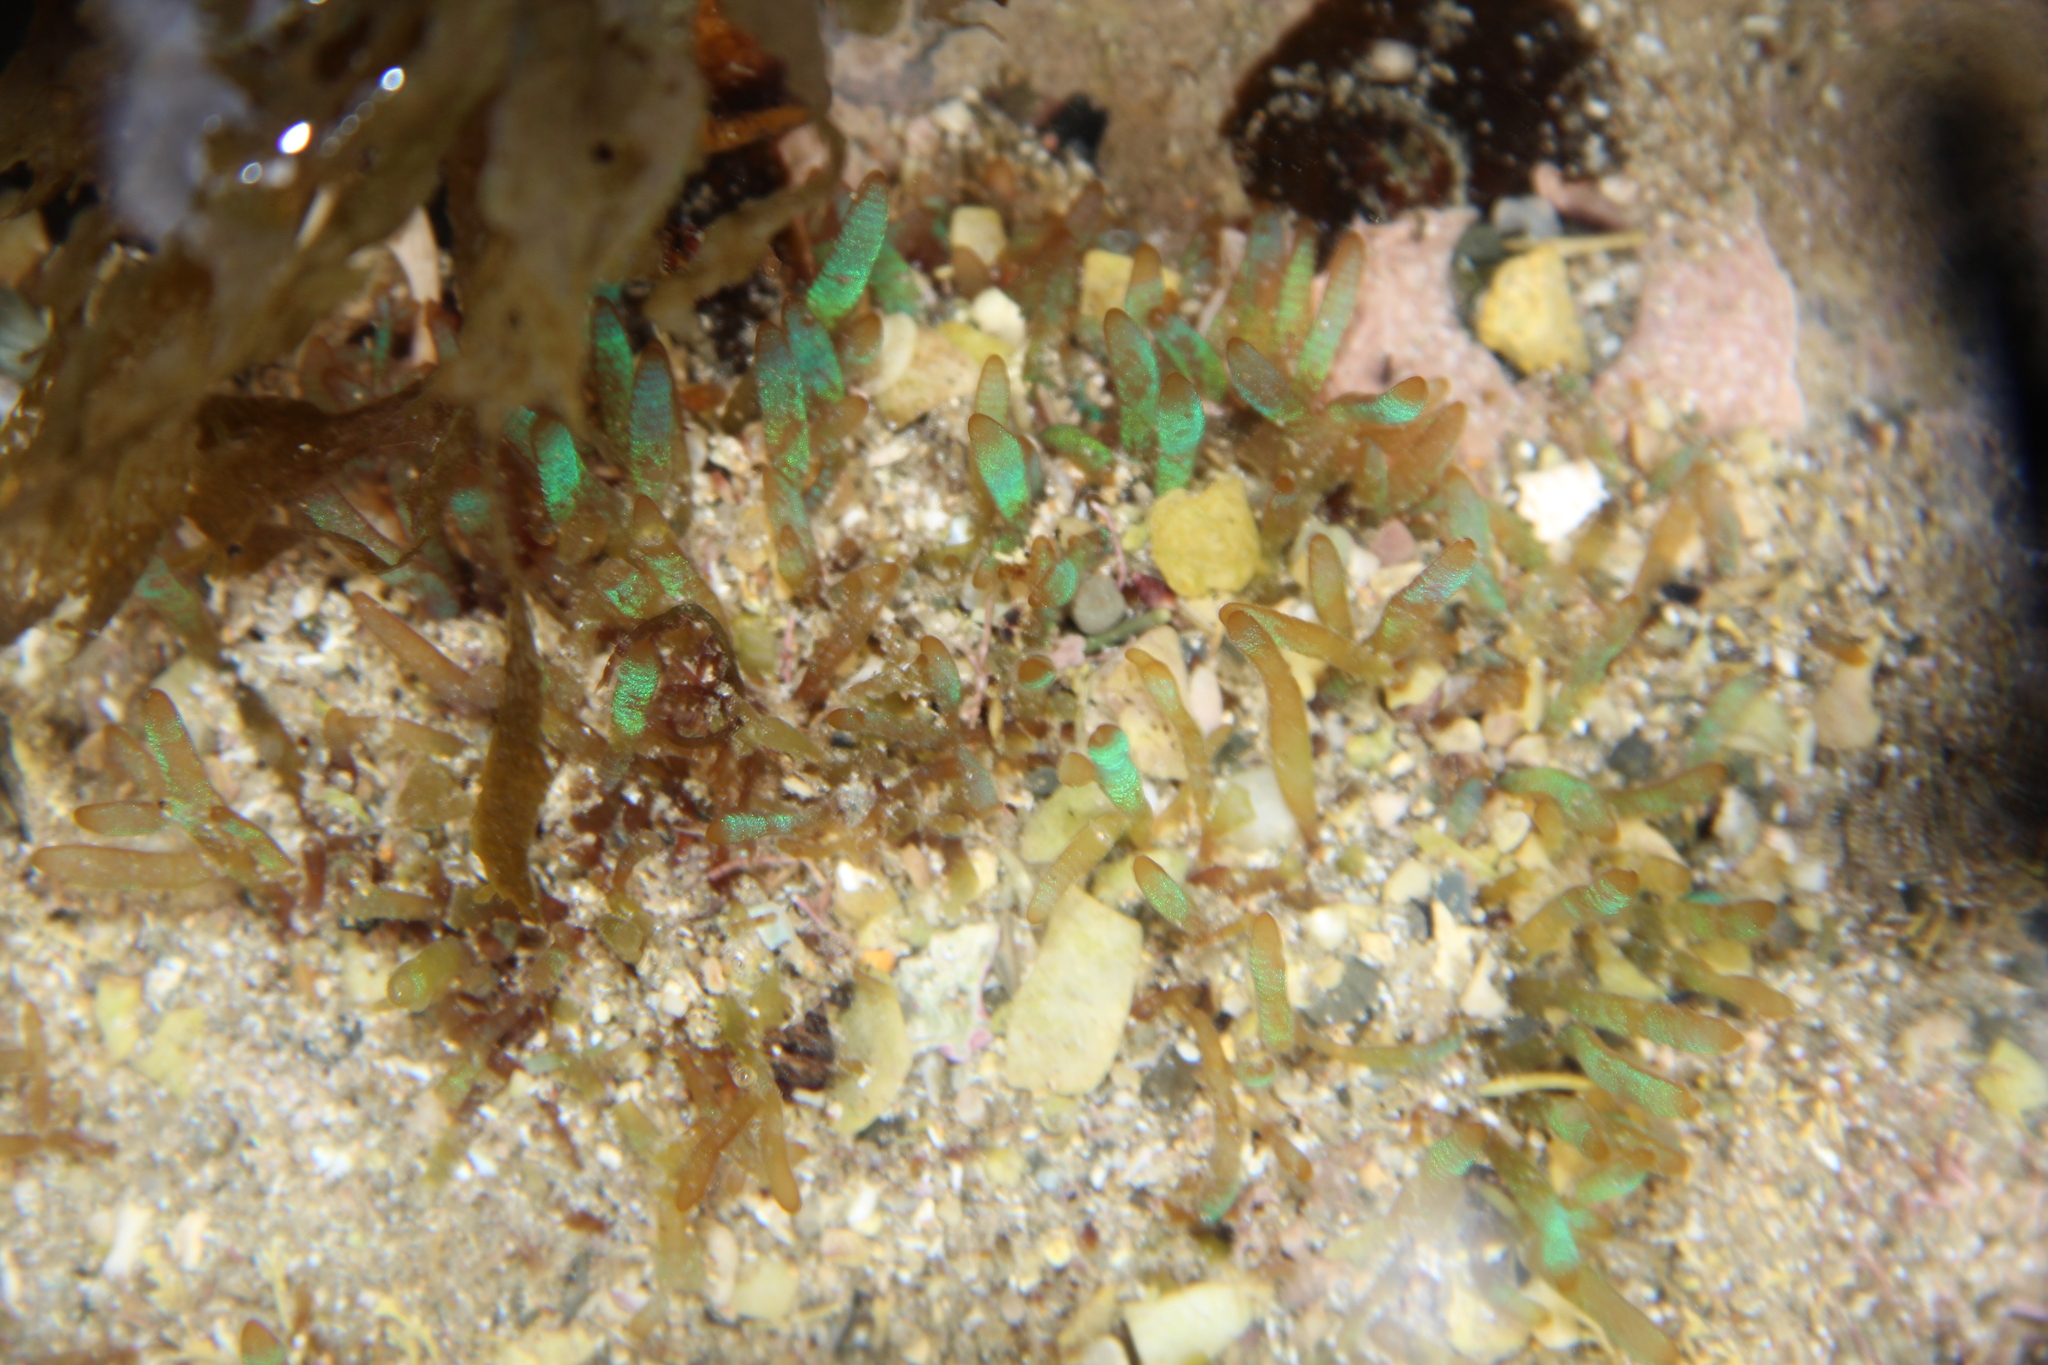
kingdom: Plantae
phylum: Rhodophyta
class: Florideophyceae
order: Rhodymeniales
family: Champiaceae
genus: Champia
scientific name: Champia laingii
